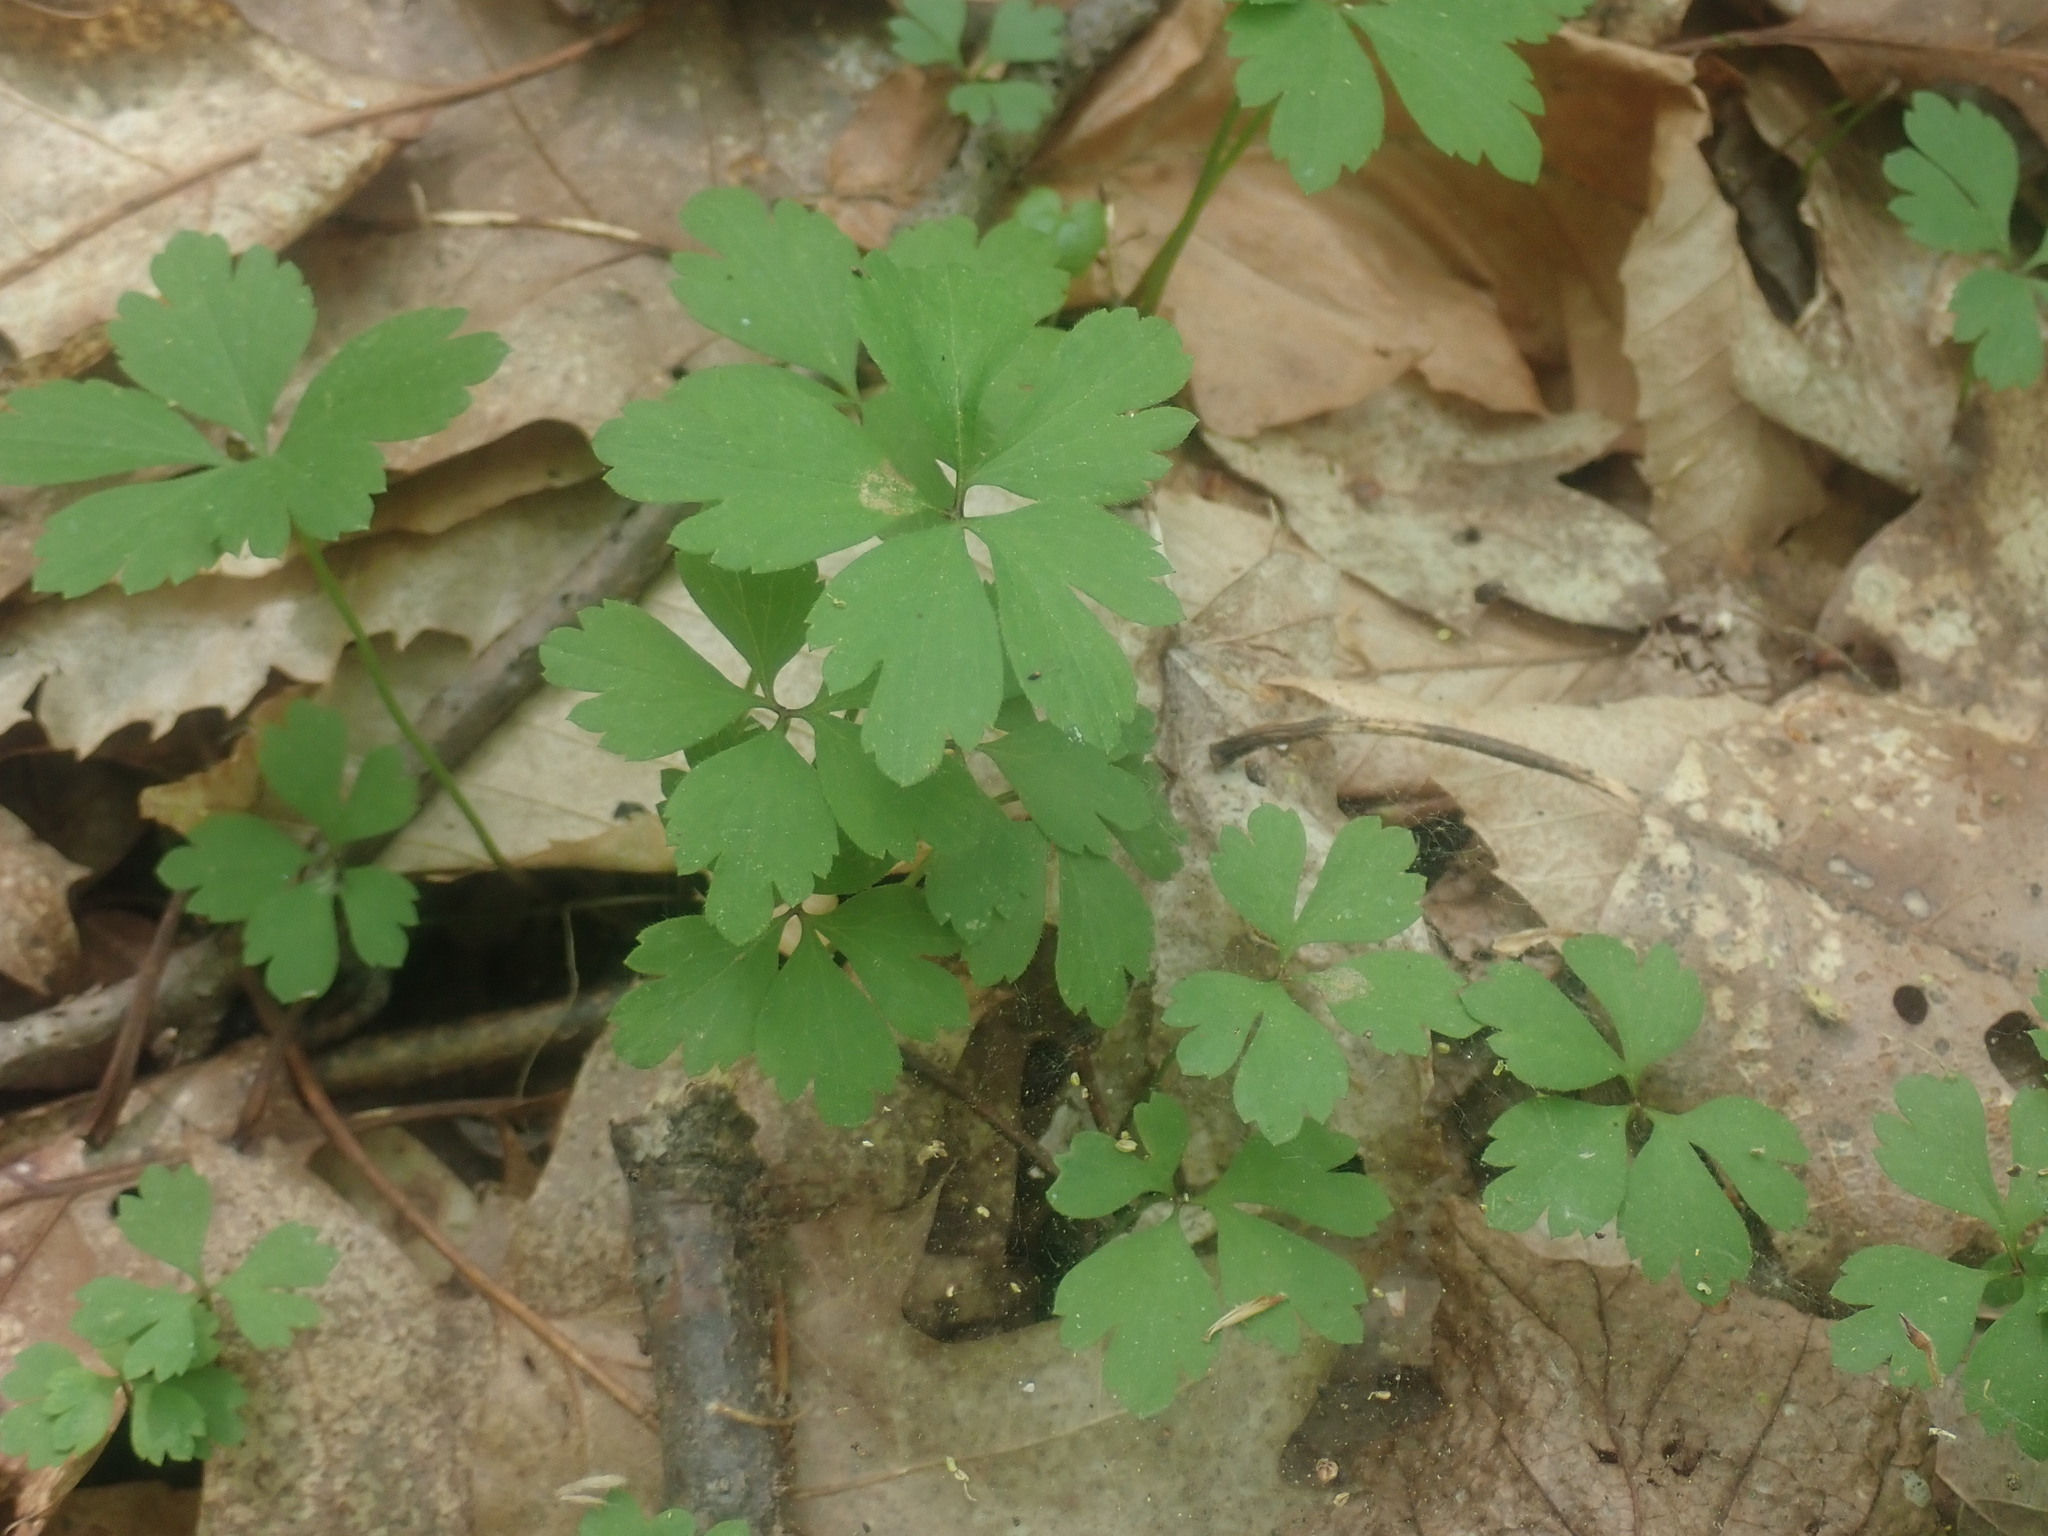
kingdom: Plantae
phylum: Tracheophyta
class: Magnoliopsida
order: Ranunculales
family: Ranunculaceae
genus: Anemone
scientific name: Anemone quinquefolia
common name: Wood anemone
